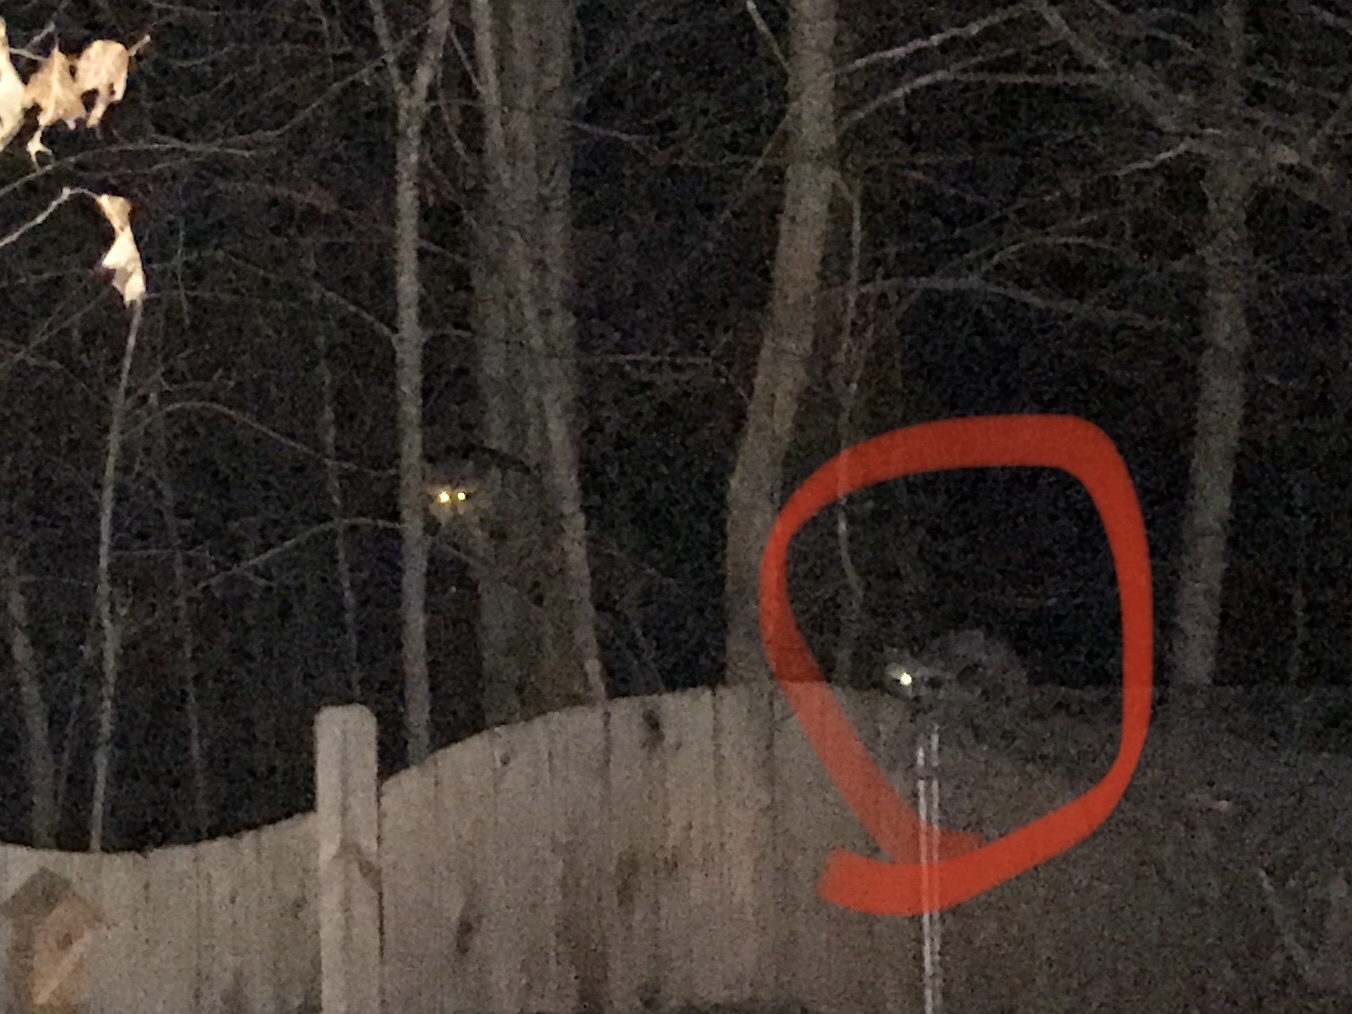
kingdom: Animalia
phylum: Chordata
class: Mammalia
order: Carnivora
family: Procyonidae
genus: Procyon
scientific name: Procyon lotor
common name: Raccoon
